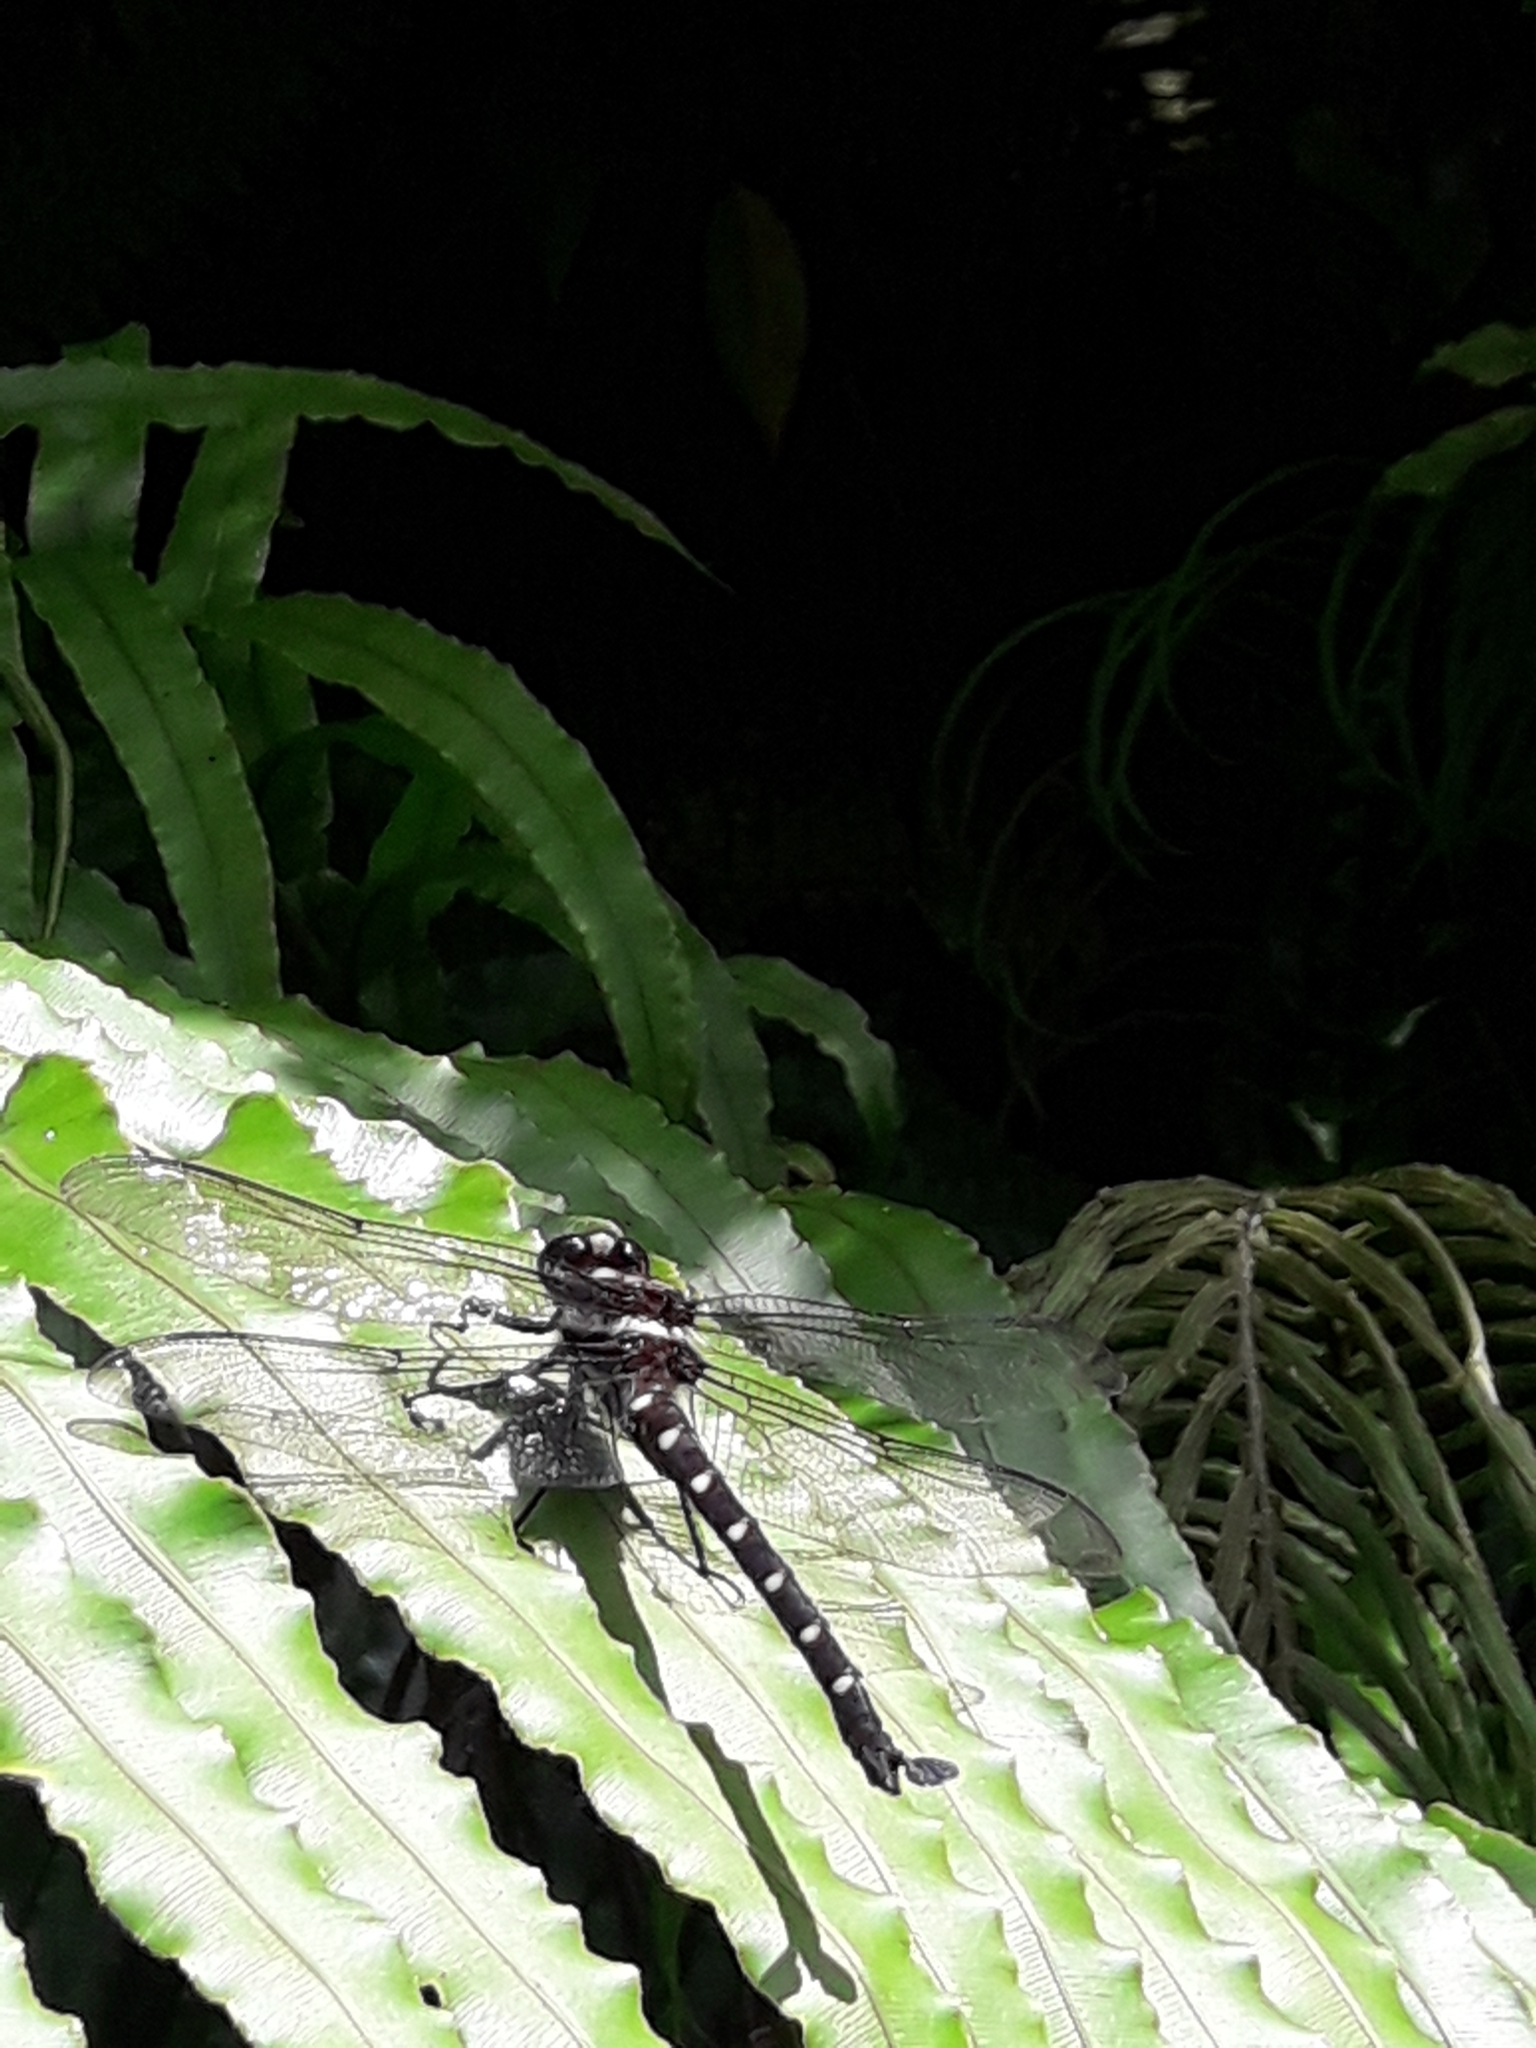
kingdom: Animalia
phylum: Arthropoda
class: Insecta
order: Odonata
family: Petaluridae
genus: Uropetala
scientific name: Uropetala carovei
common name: Bush giant dragonfly
